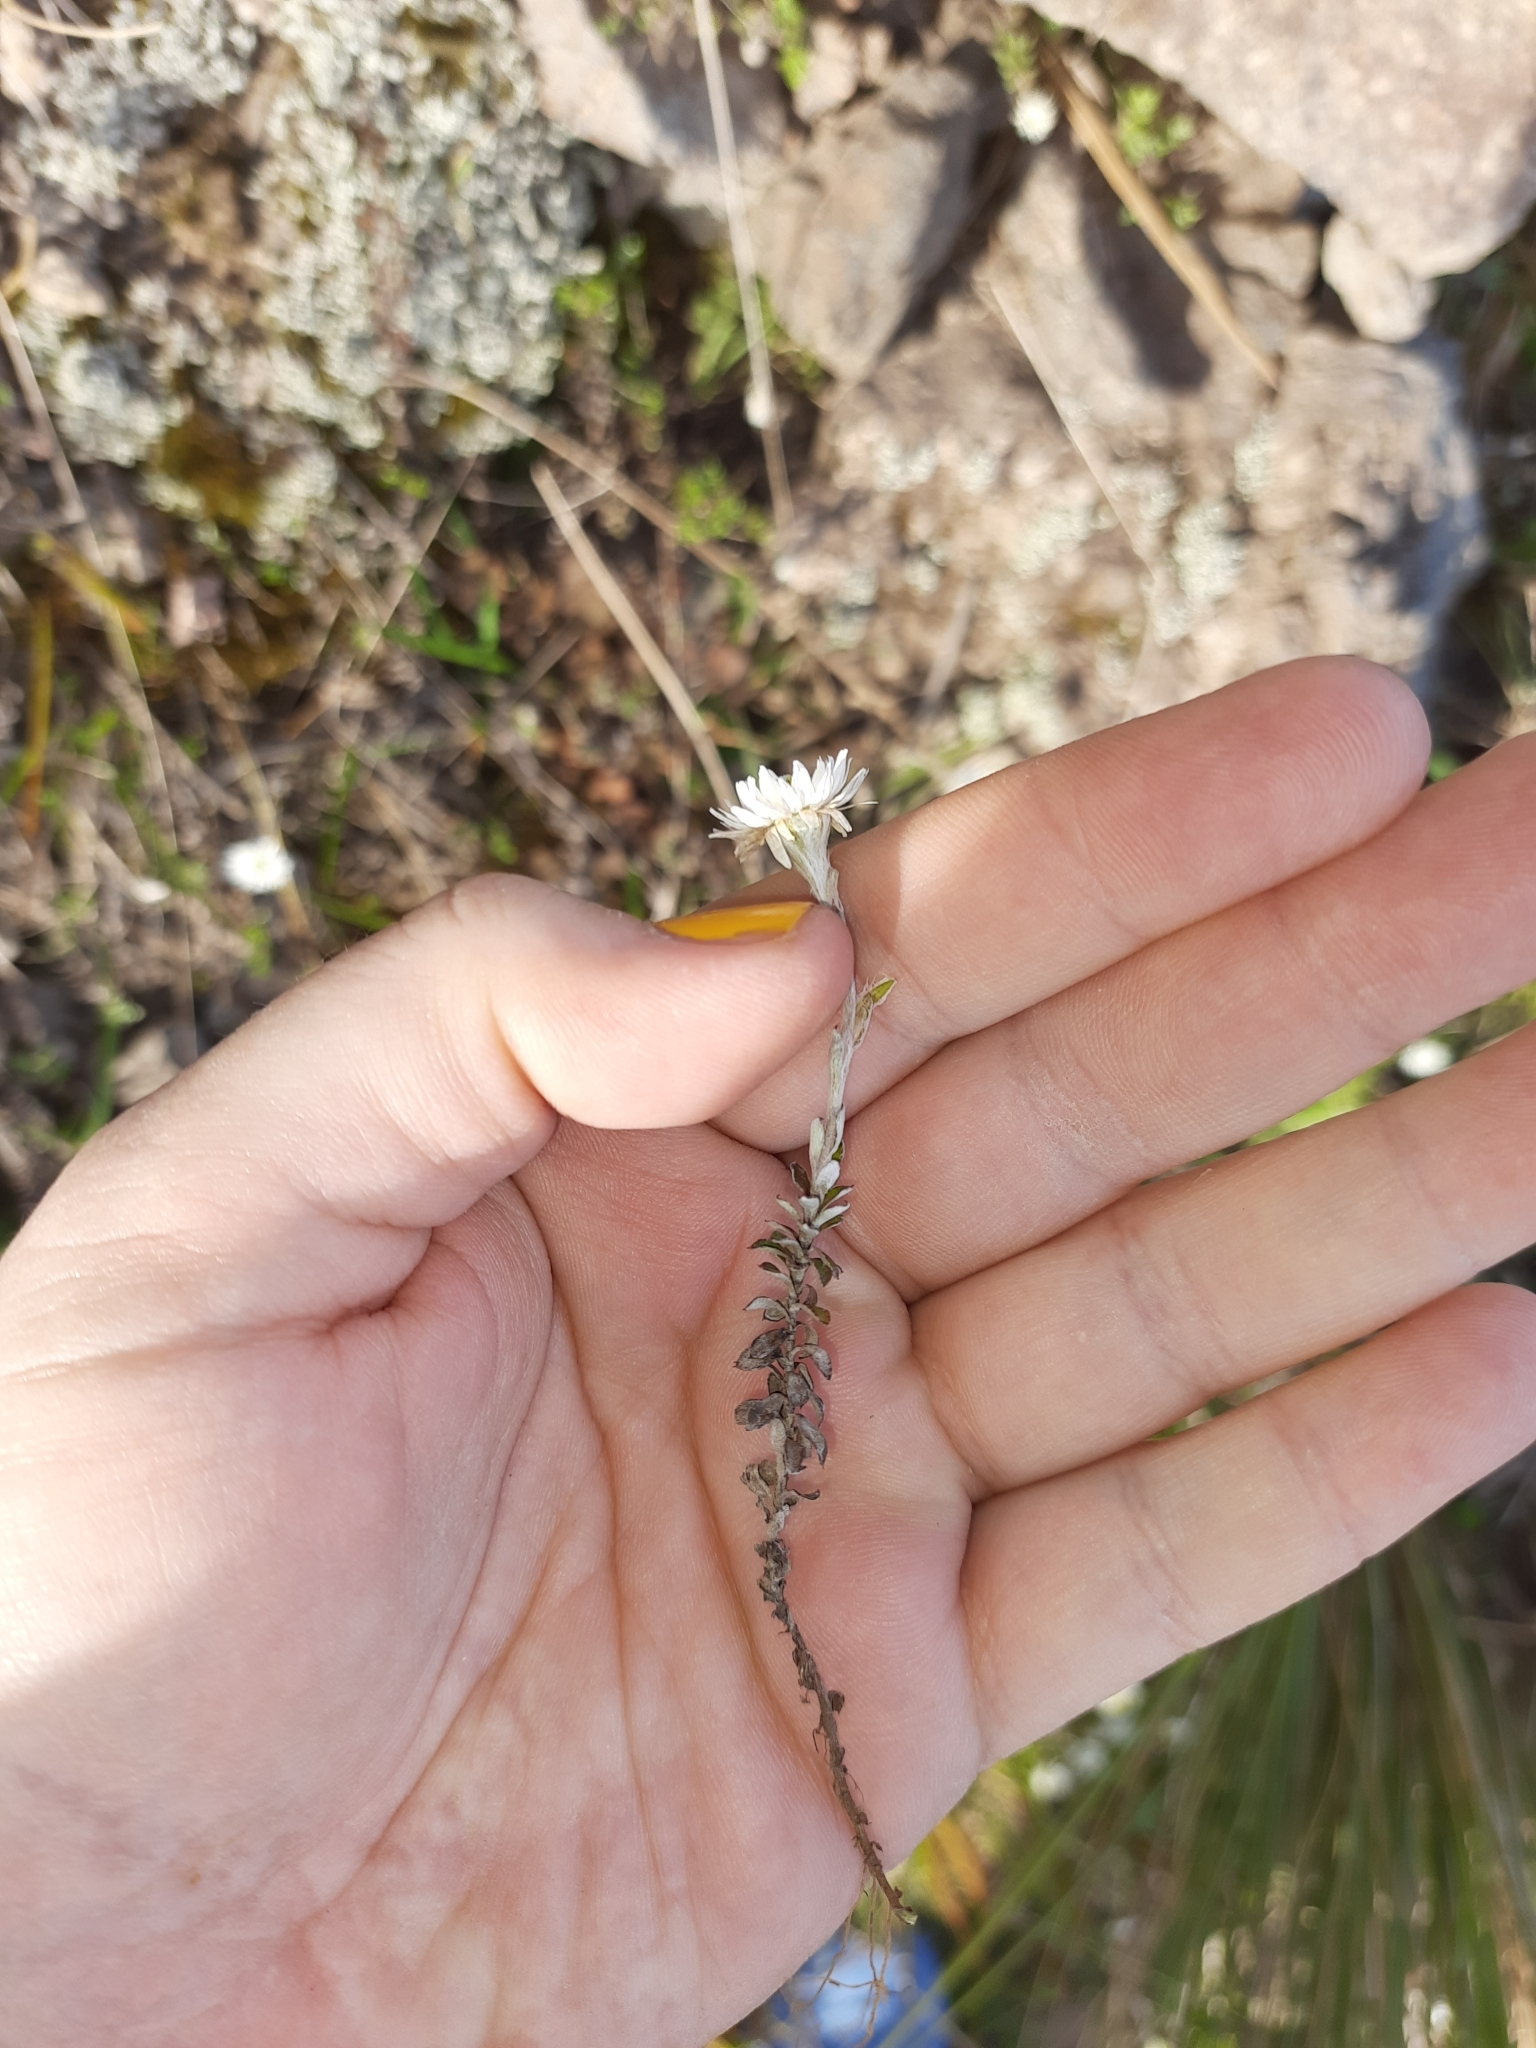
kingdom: Plantae
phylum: Tracheophyta
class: Magnoliopsida
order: Asterales
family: Asteraceae
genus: Anaphalioides
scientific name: Anaphalioides bellidioides
